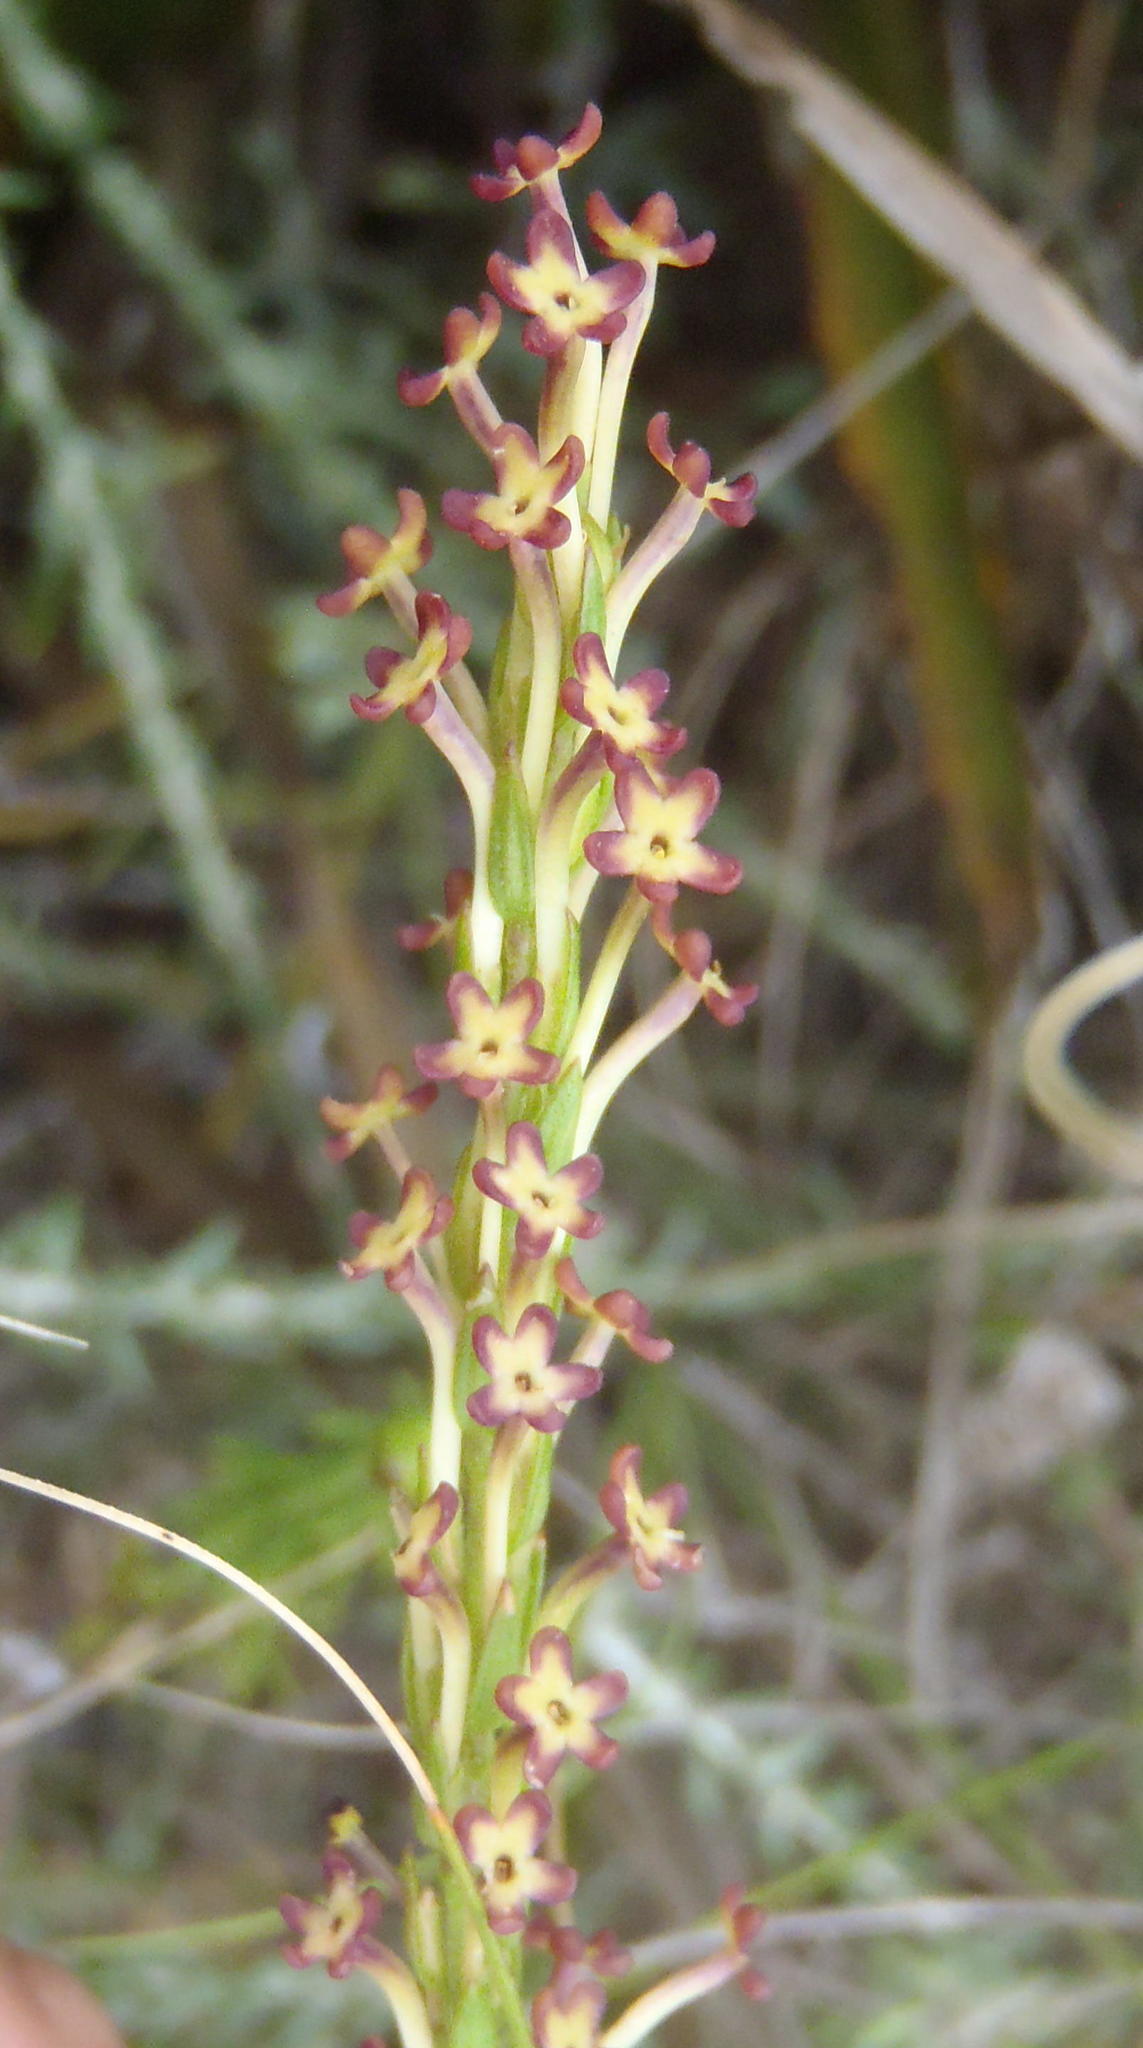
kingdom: Plantae
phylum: Tracheophyta
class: Magnoliopsida
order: Lamiales
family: Scrophulariaceae
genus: Microdon
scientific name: Microdon dubius
